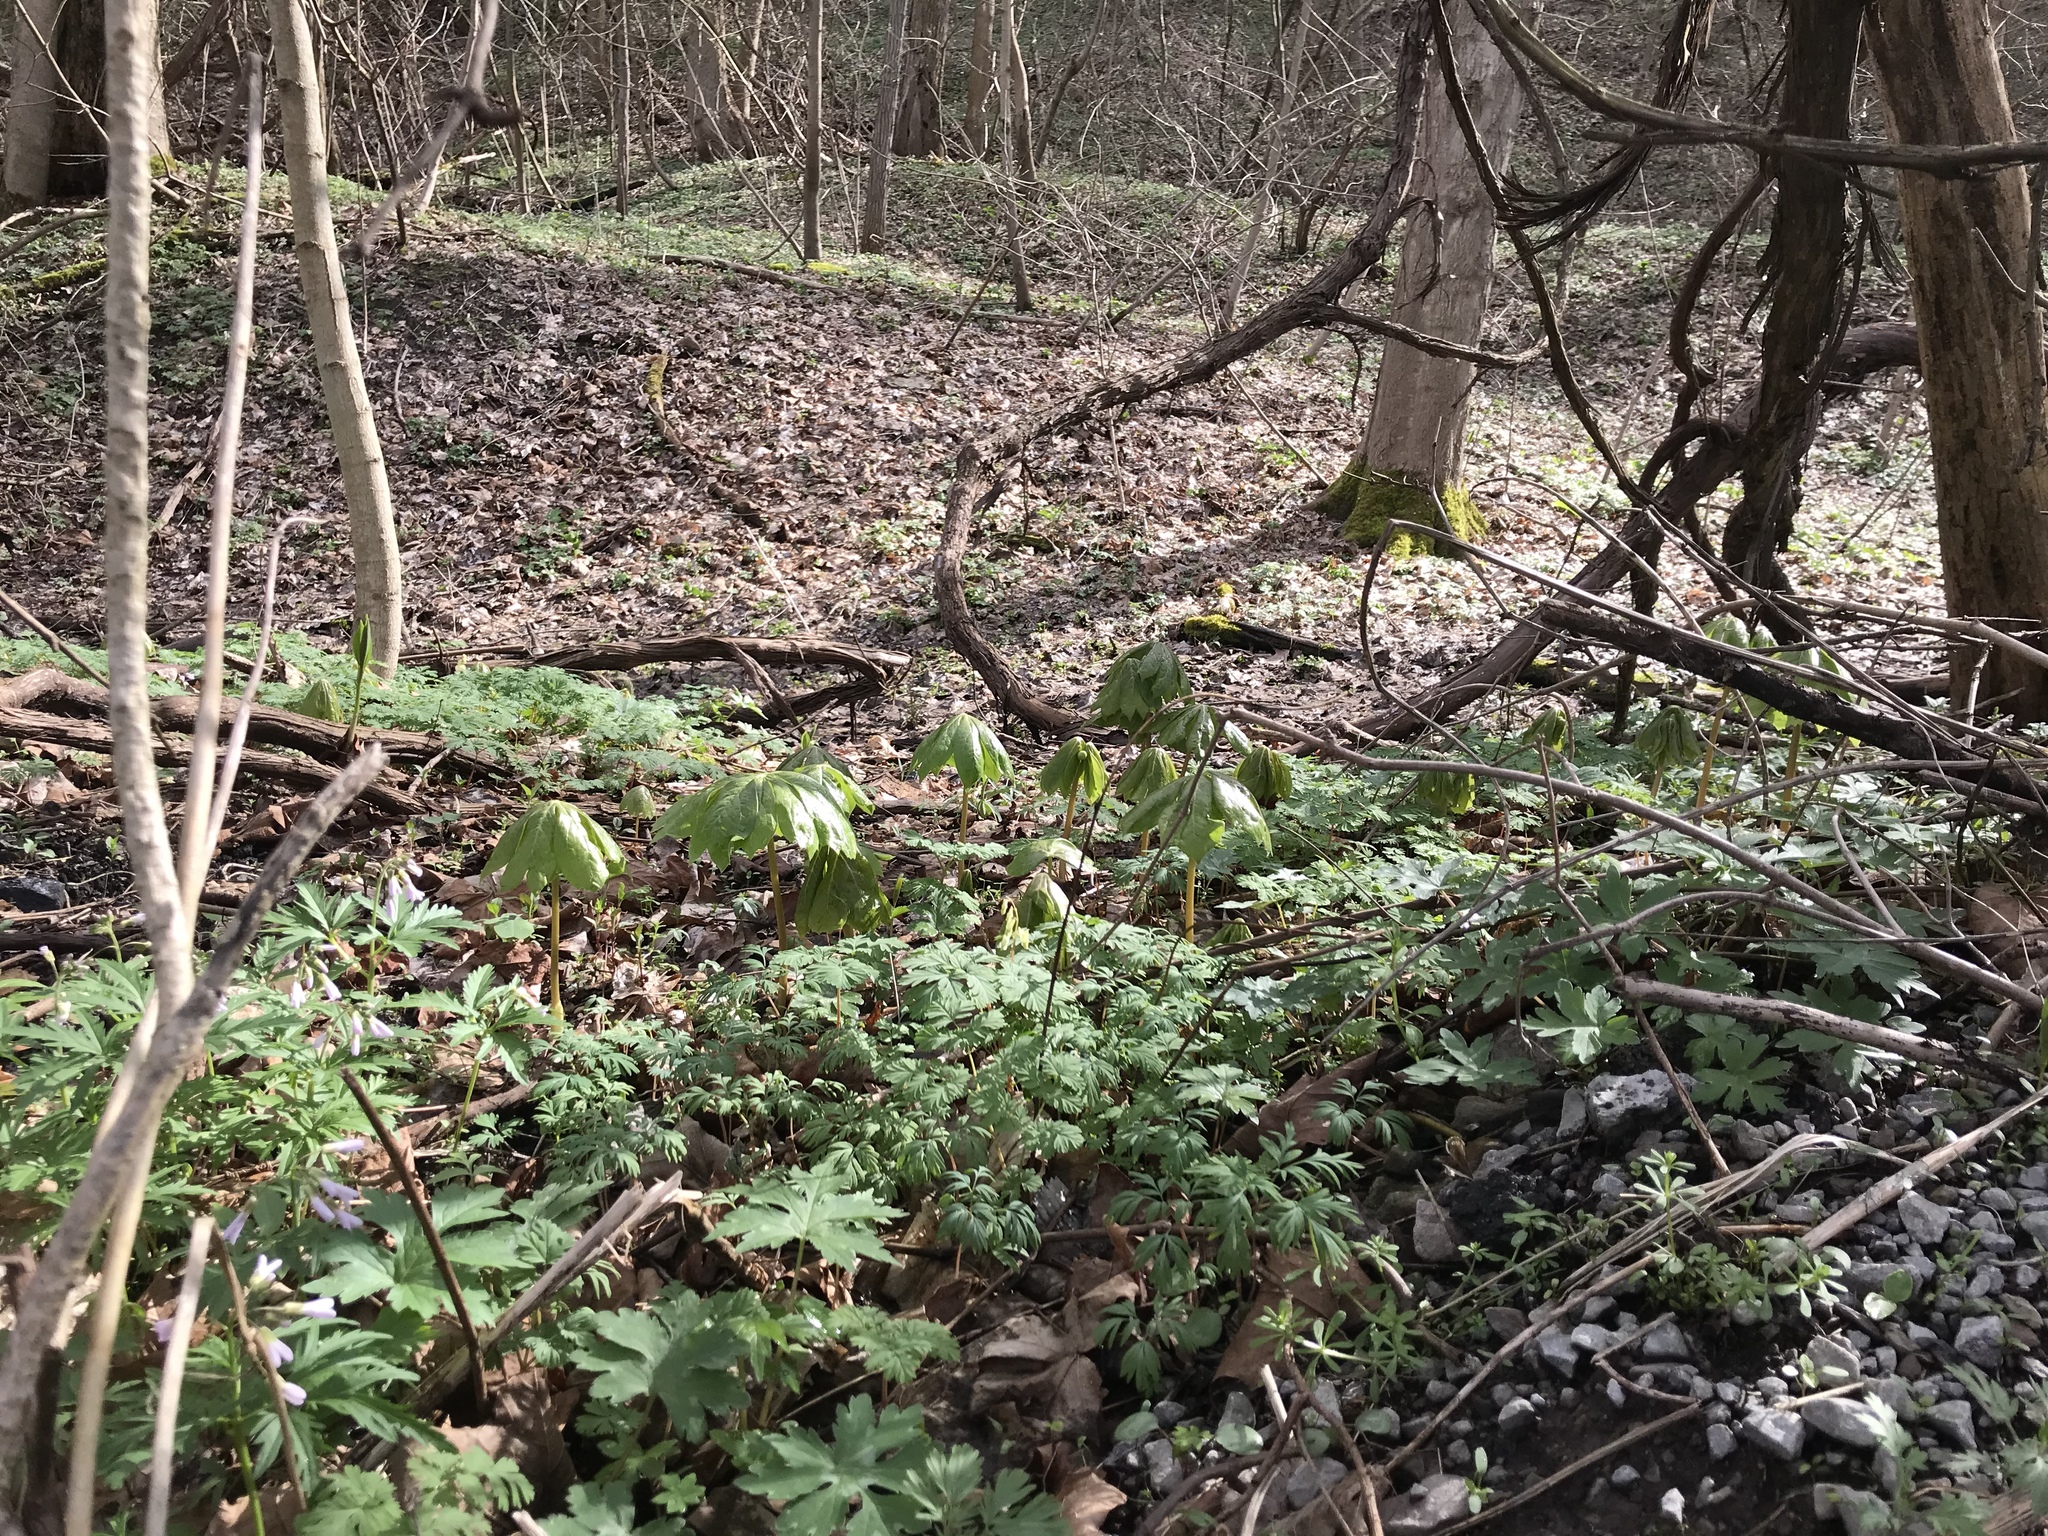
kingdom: Plantae
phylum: Tracheophyta
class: Magnoliopsida
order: Ranunculales
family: Berberidaceae
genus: Podophyllum
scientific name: Podophyllum peltatum
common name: Wild mandrake
